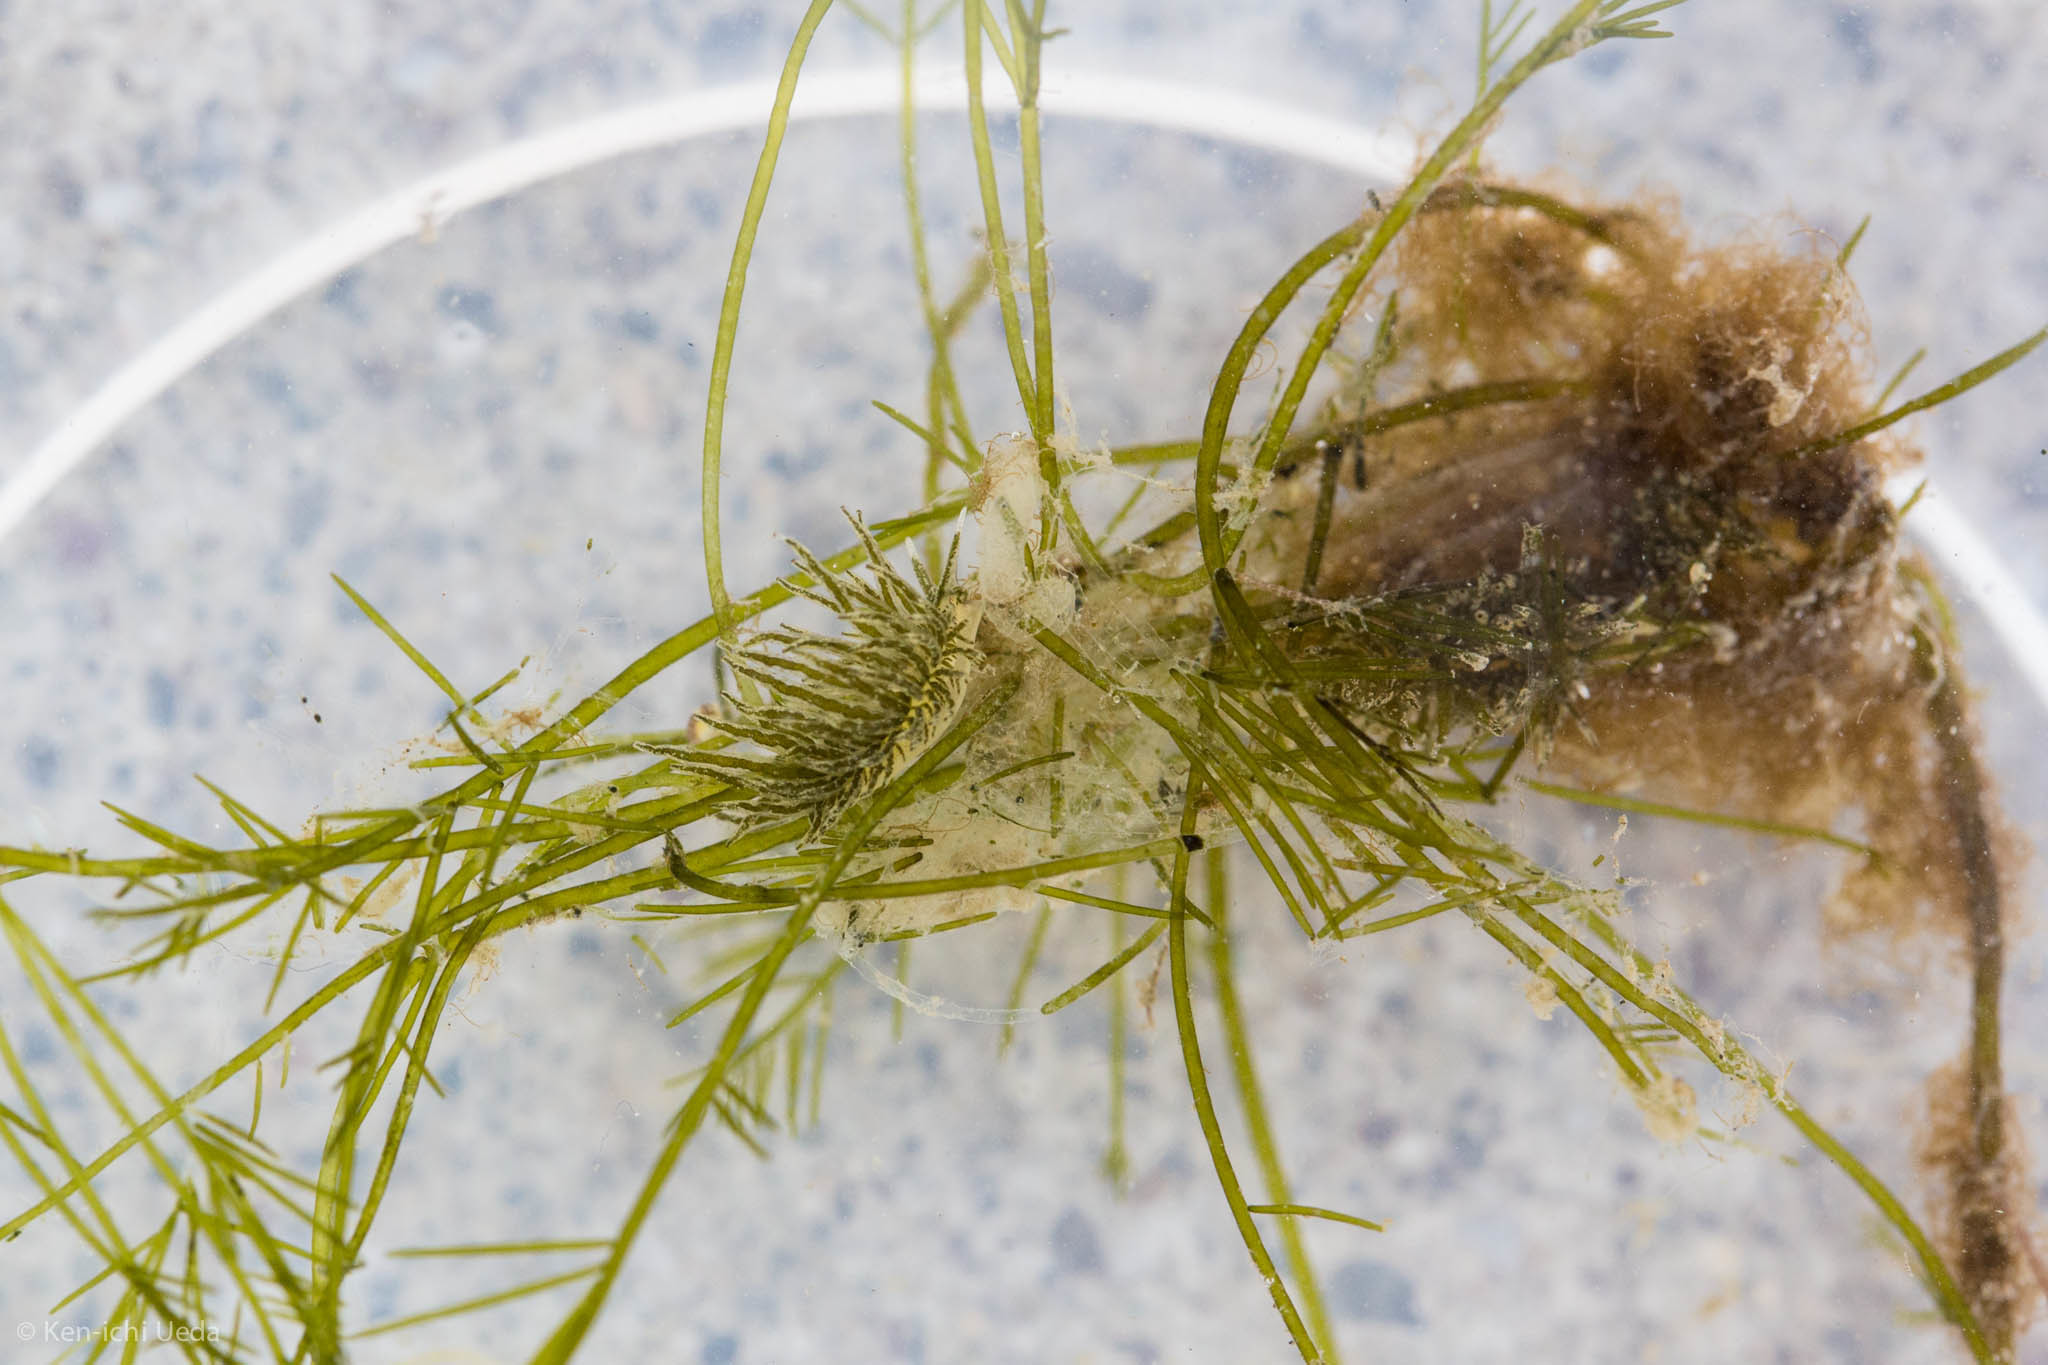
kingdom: Animalia
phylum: Mollusca
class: Gastropoda
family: Limapontiidae
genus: Placida
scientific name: Placida dendritica
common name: Dendritic nudibranch
